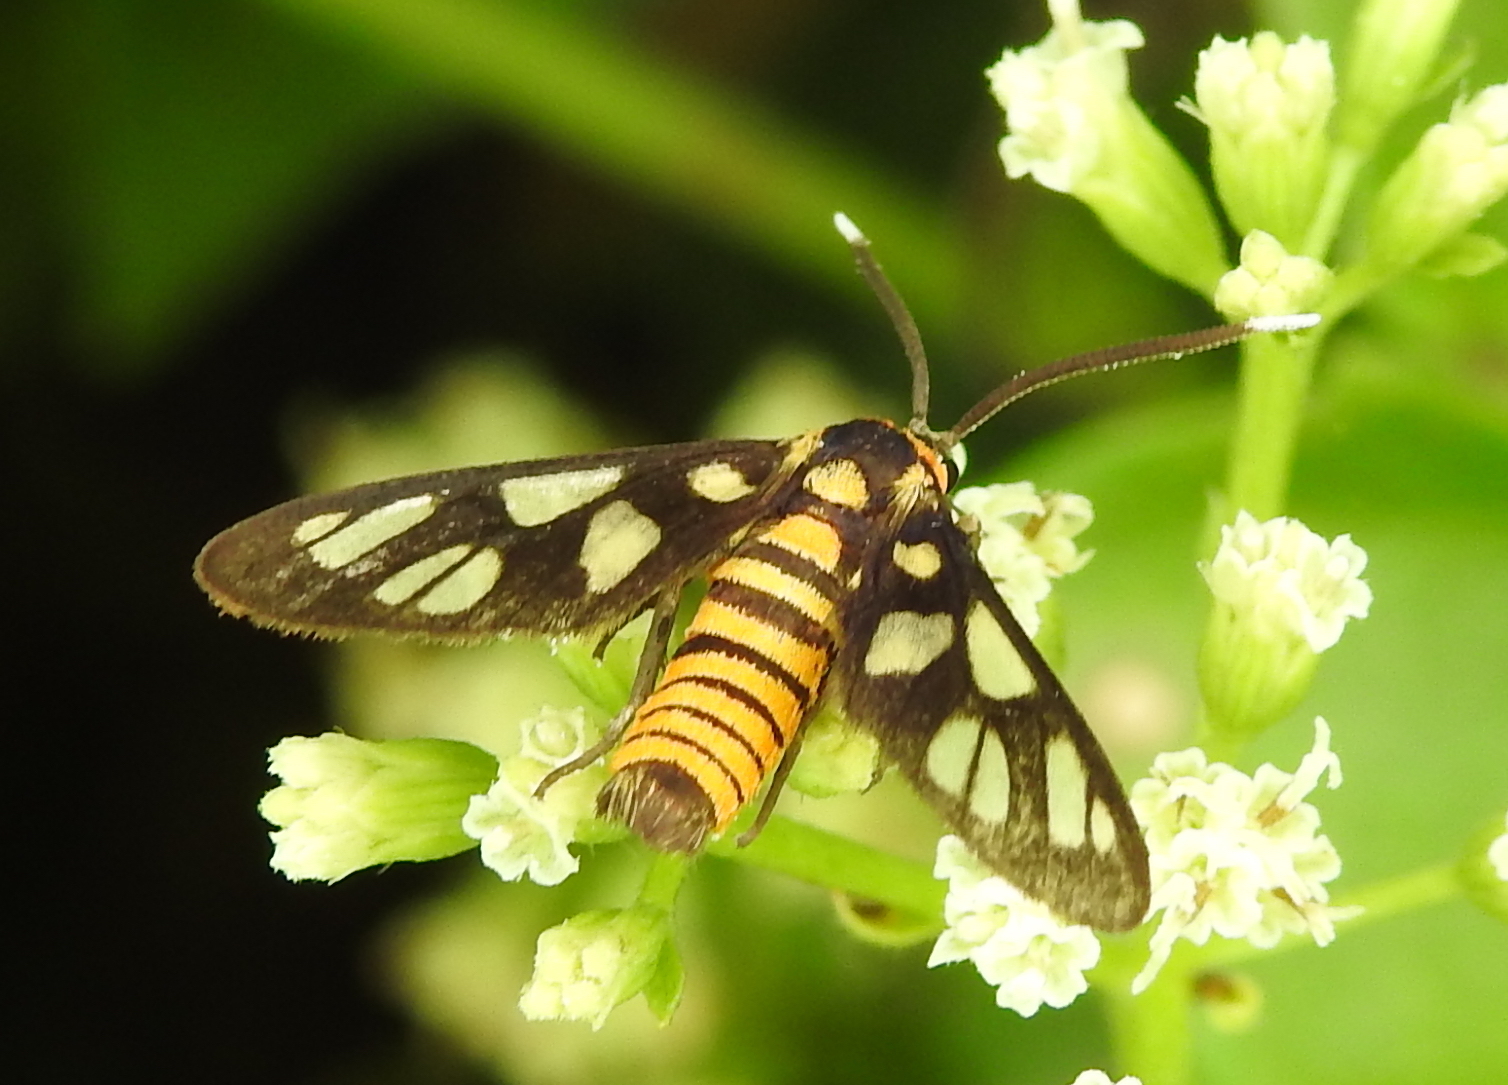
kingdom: Animalia
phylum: Arthropoda
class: Insecta
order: Lepidoptera
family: Erebidae
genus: Amata
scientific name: Amata huebneri
